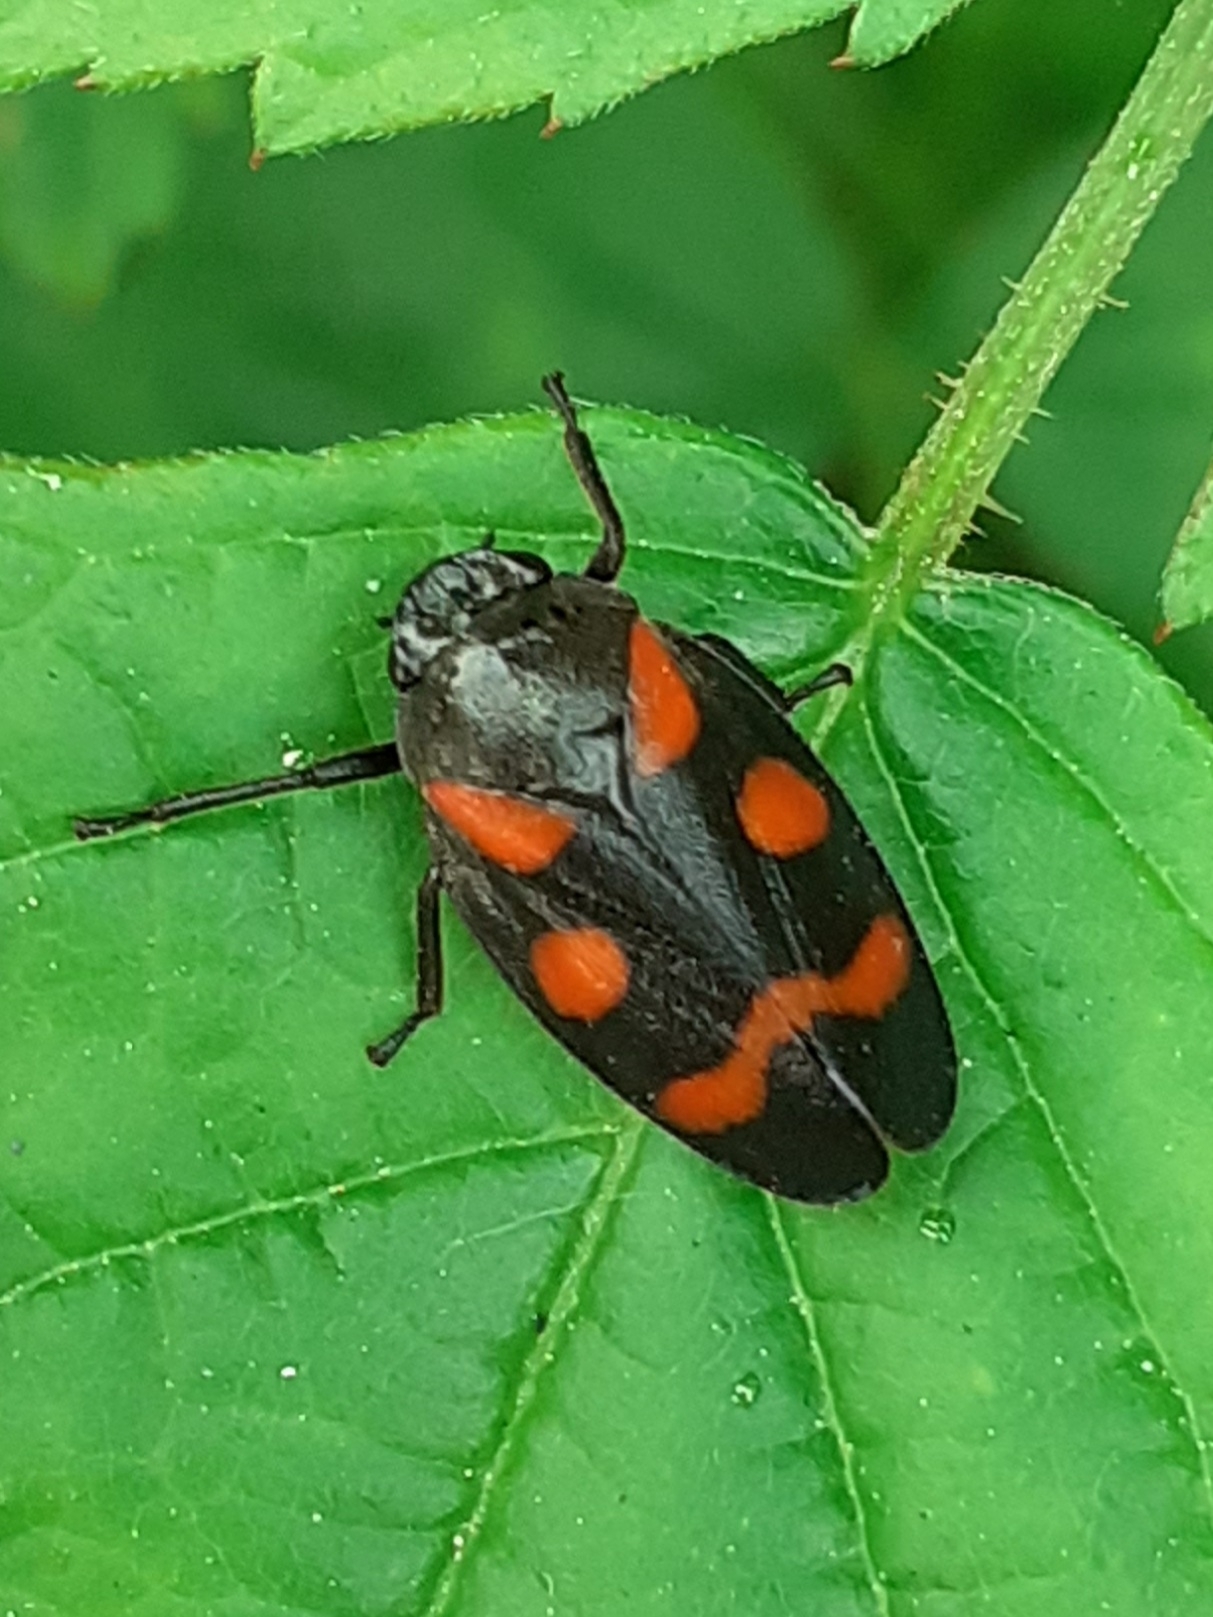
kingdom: Animalia
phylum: Arthropoda
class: Insecta
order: Hemiptera
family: Cercopidae
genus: Cercopis
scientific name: Cercopis sanguinolenta
